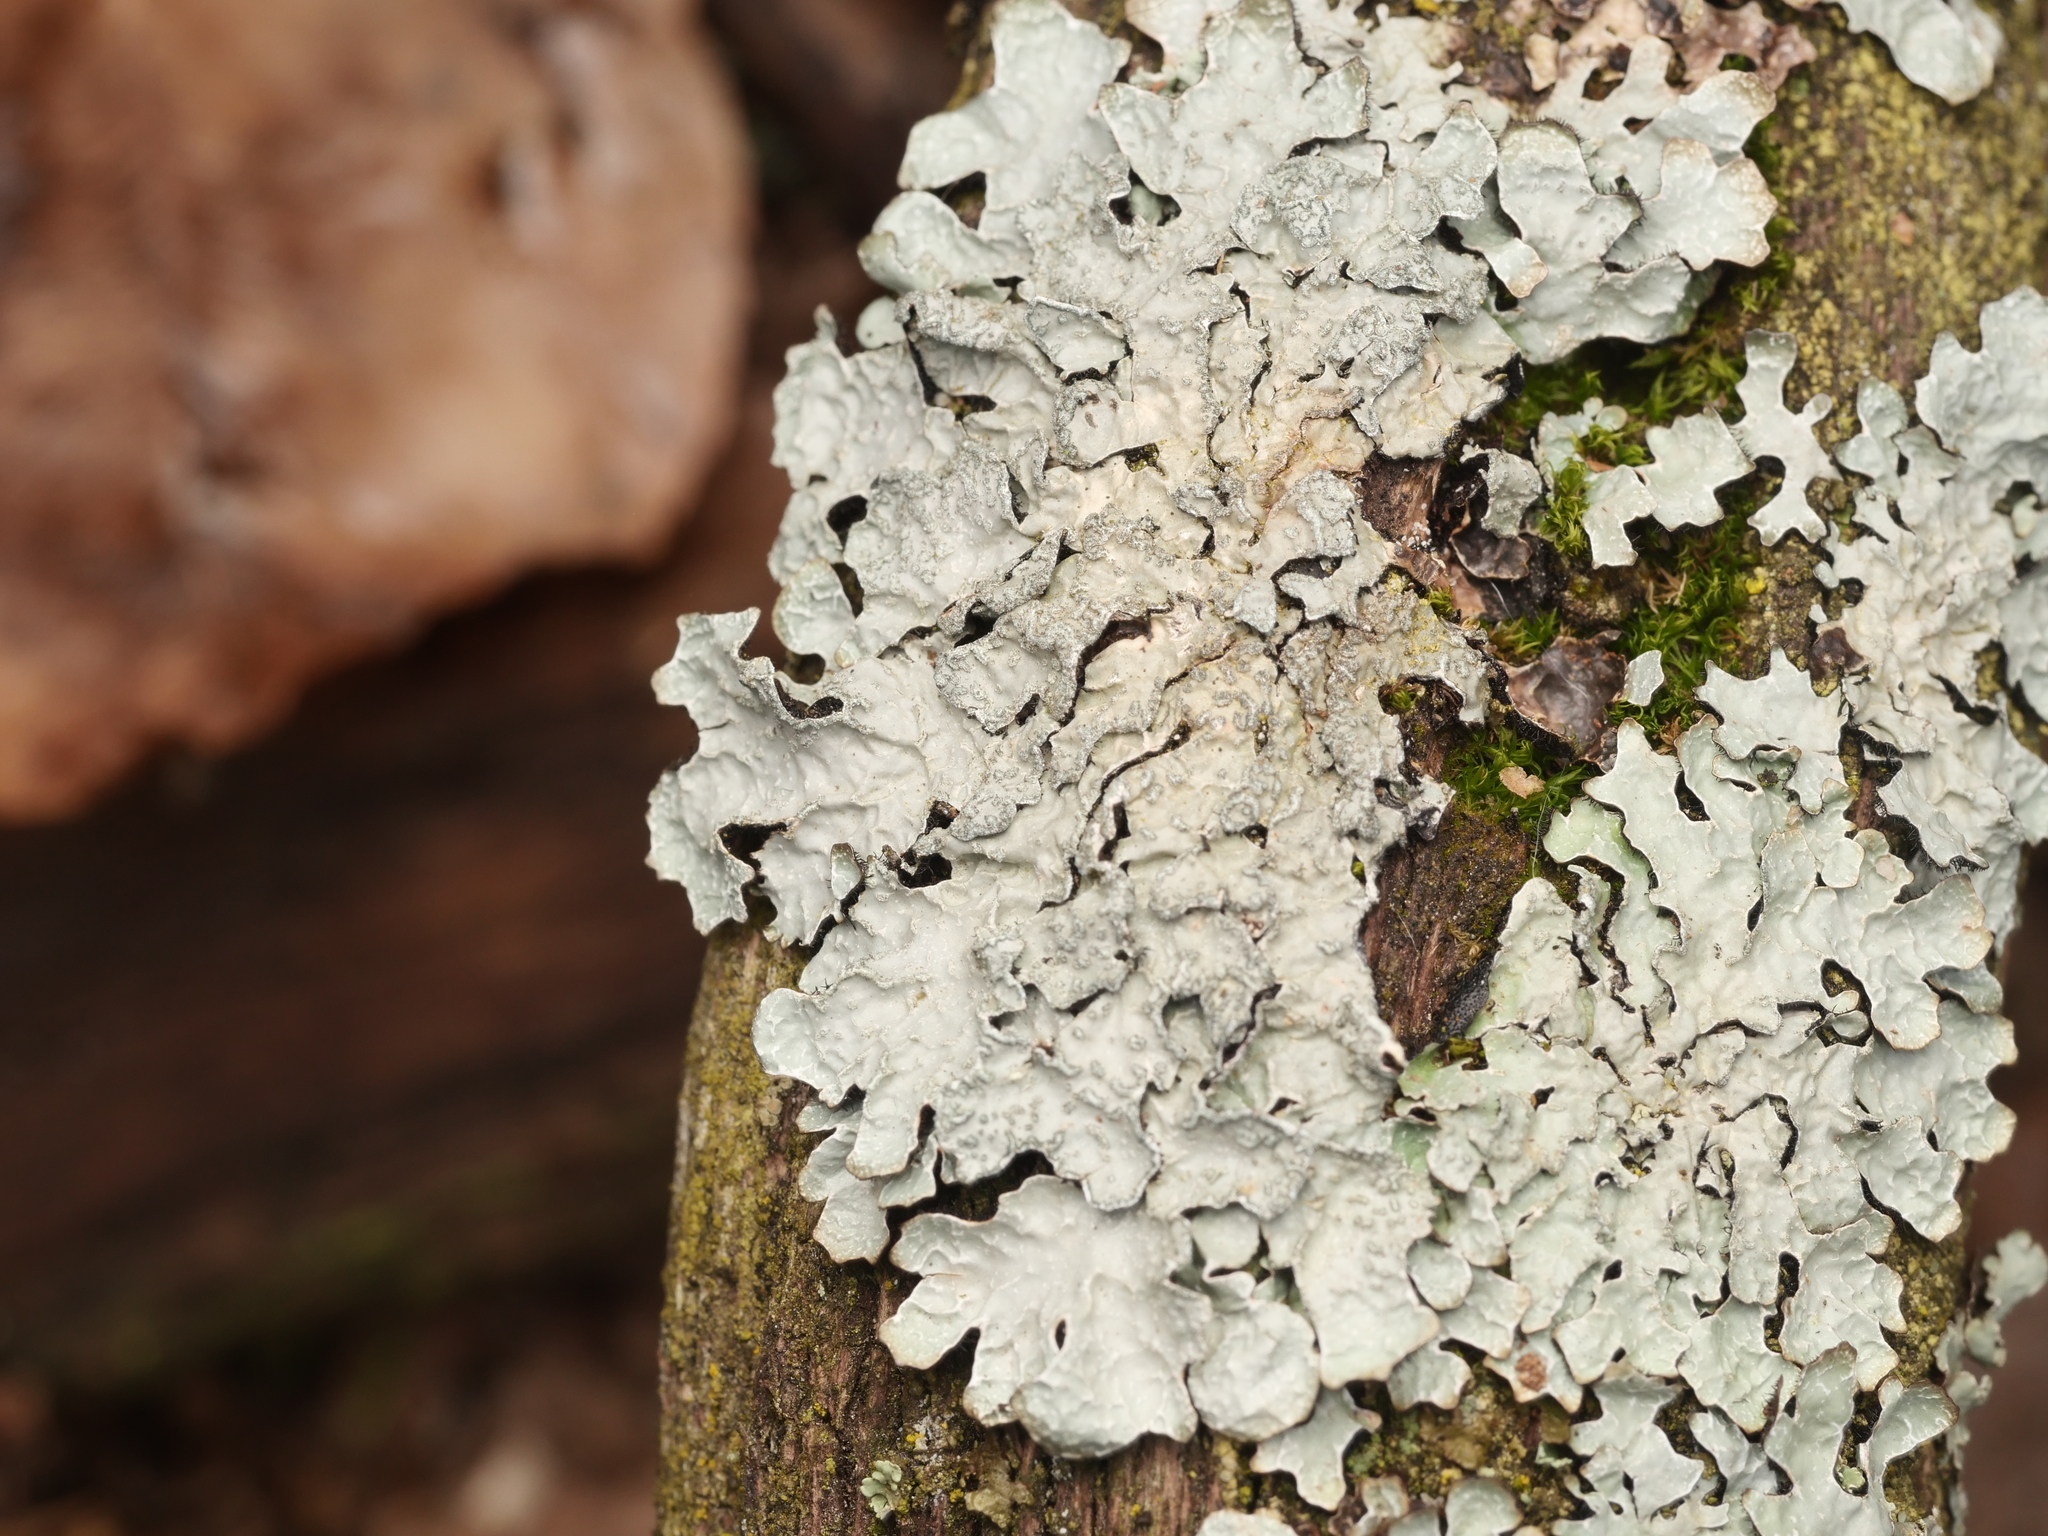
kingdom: Fungi
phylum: Ascomycota
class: Lecanoromycetes
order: Lecanorales
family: Parmeliaceae
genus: Parmelia
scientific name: Parmelia sulcata
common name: Netted shield lichen
